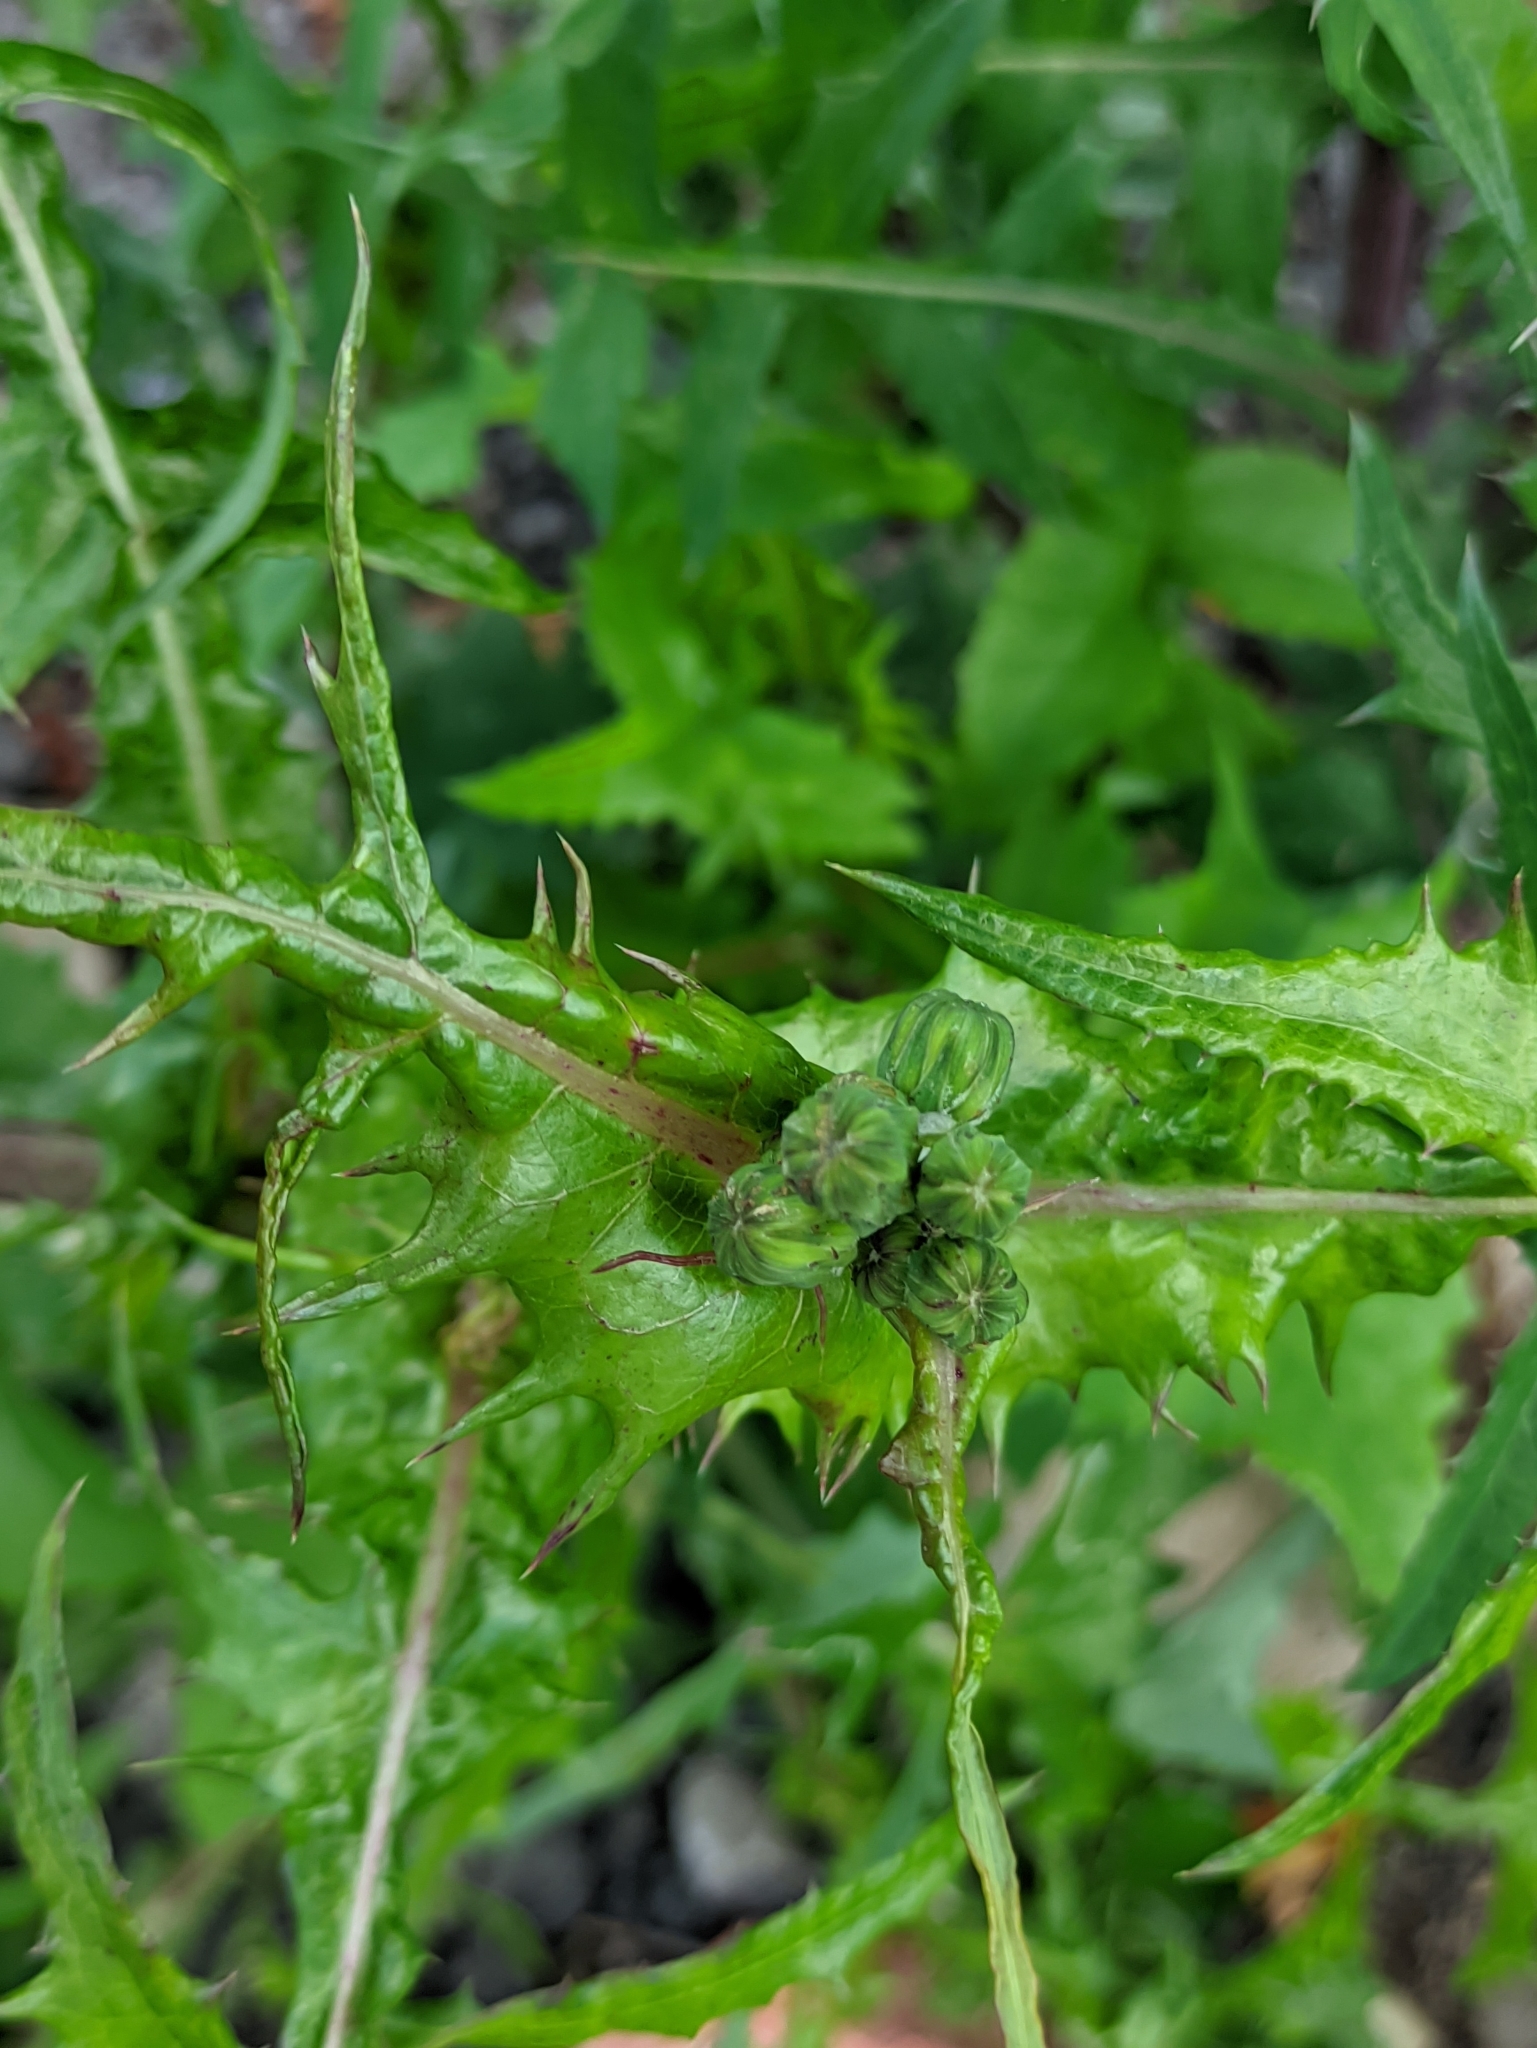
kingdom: Plantae
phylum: Tracheophyta
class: Magnoliopsida
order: Asterales
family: Asteraceae
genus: Sonchus
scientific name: Sonchus asper
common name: Prickly sow-thistle
